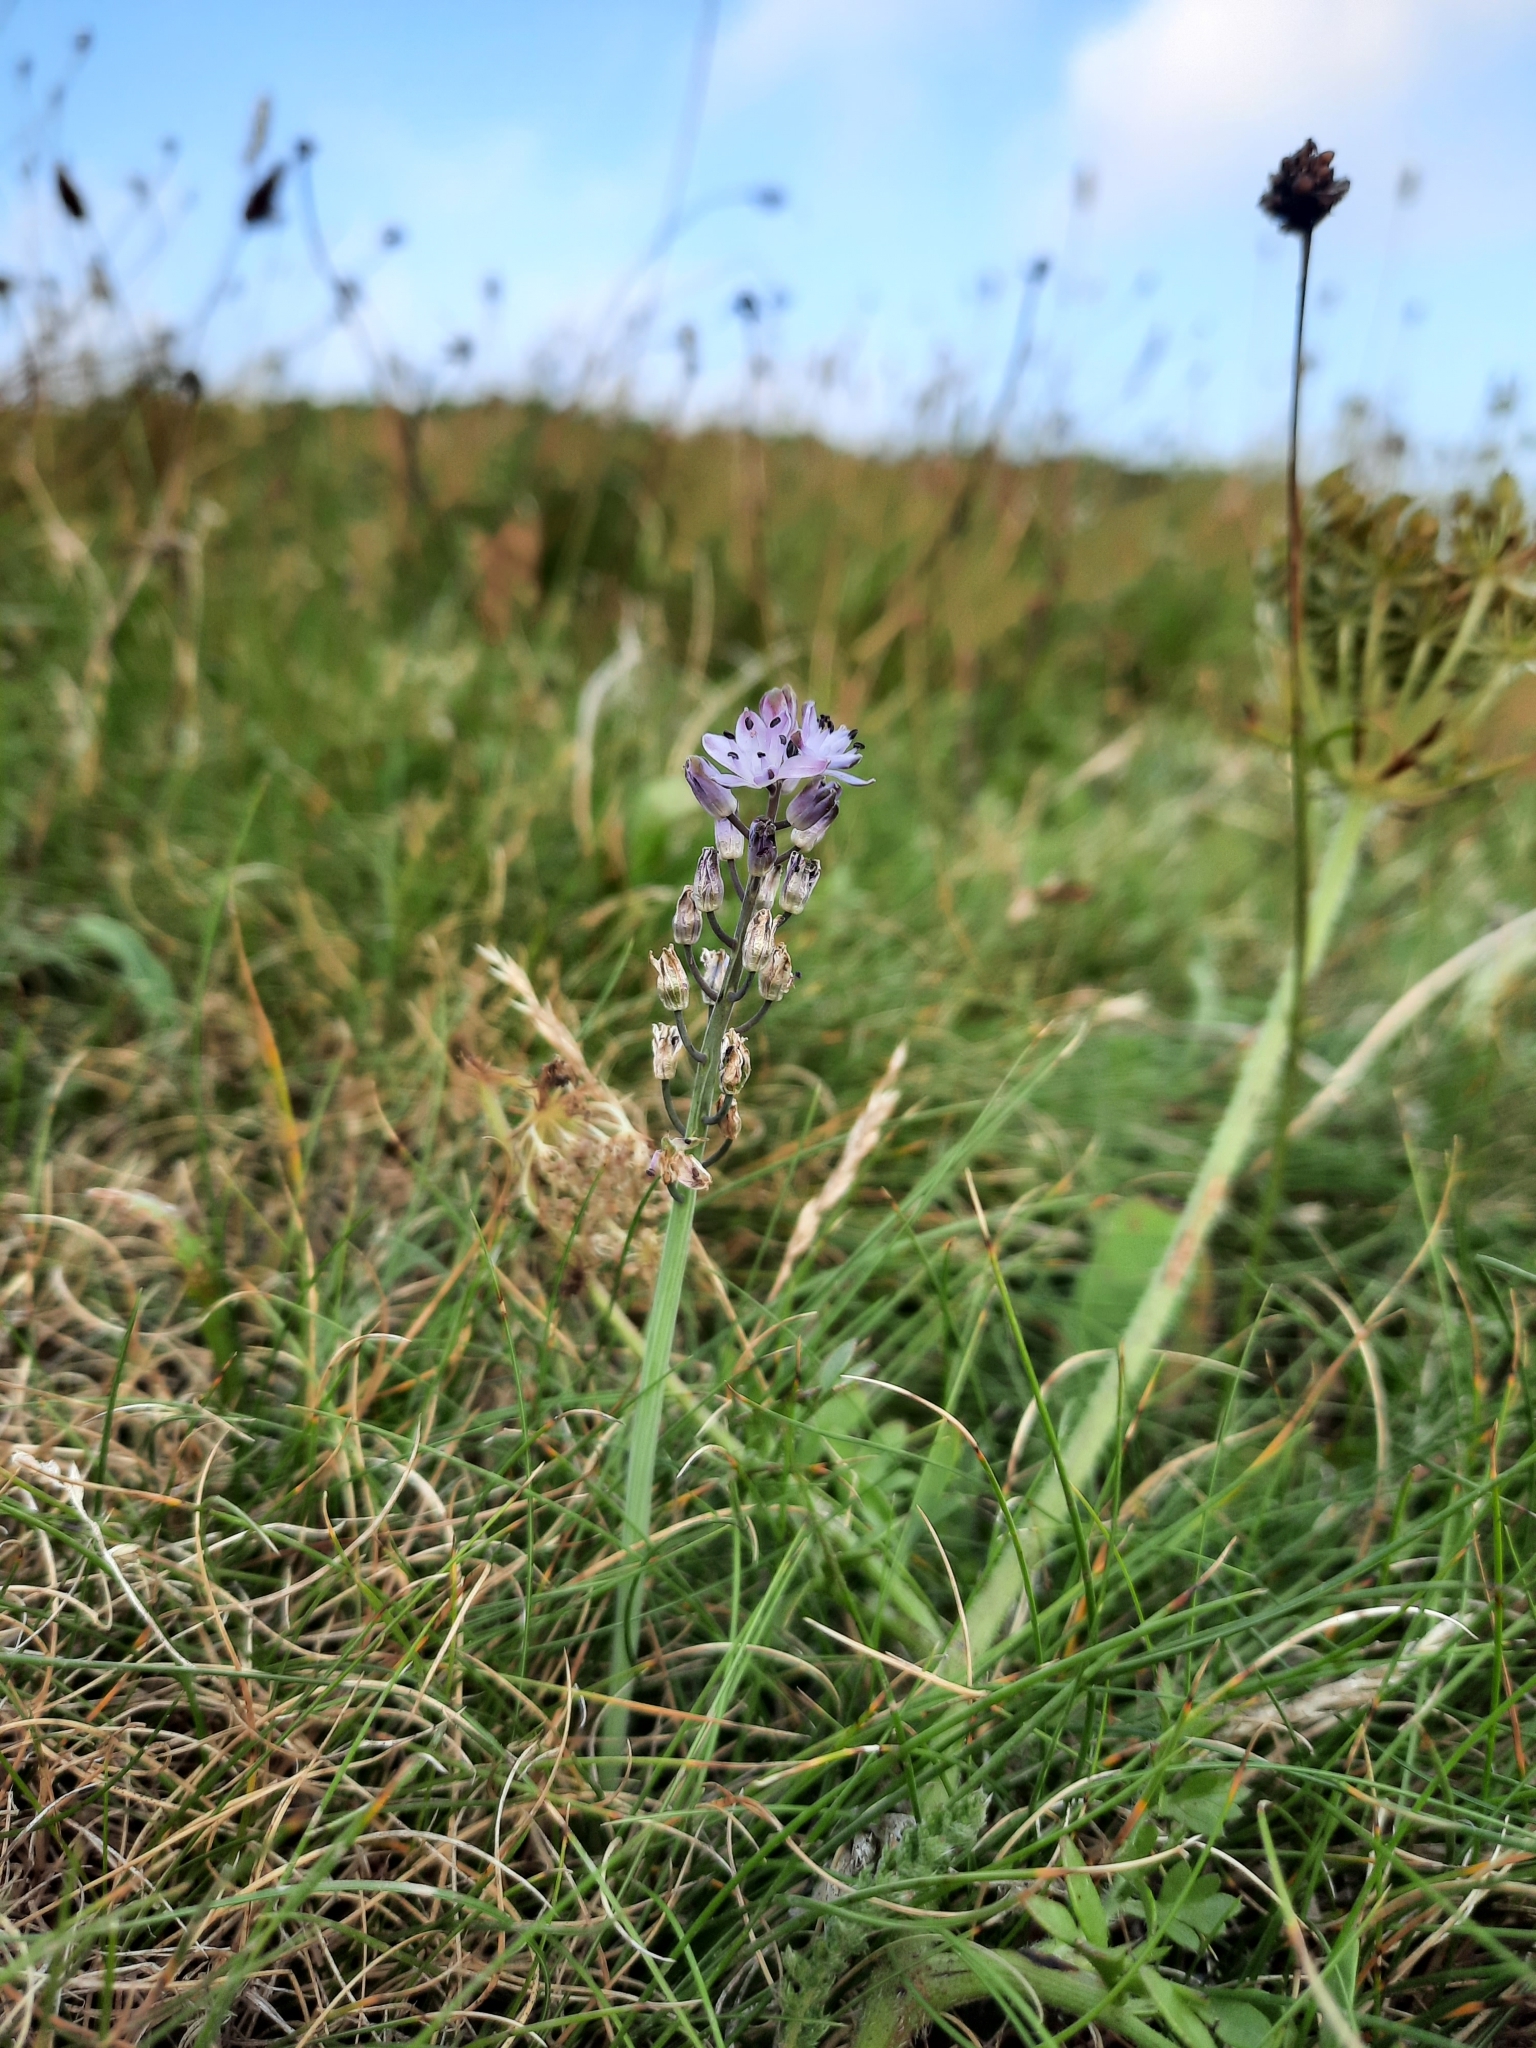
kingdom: Plantae
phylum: Tracheophyta
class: Liliopsida
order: Asparagales
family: Asparagaceae
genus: Prospero
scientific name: Prospero autumnale
